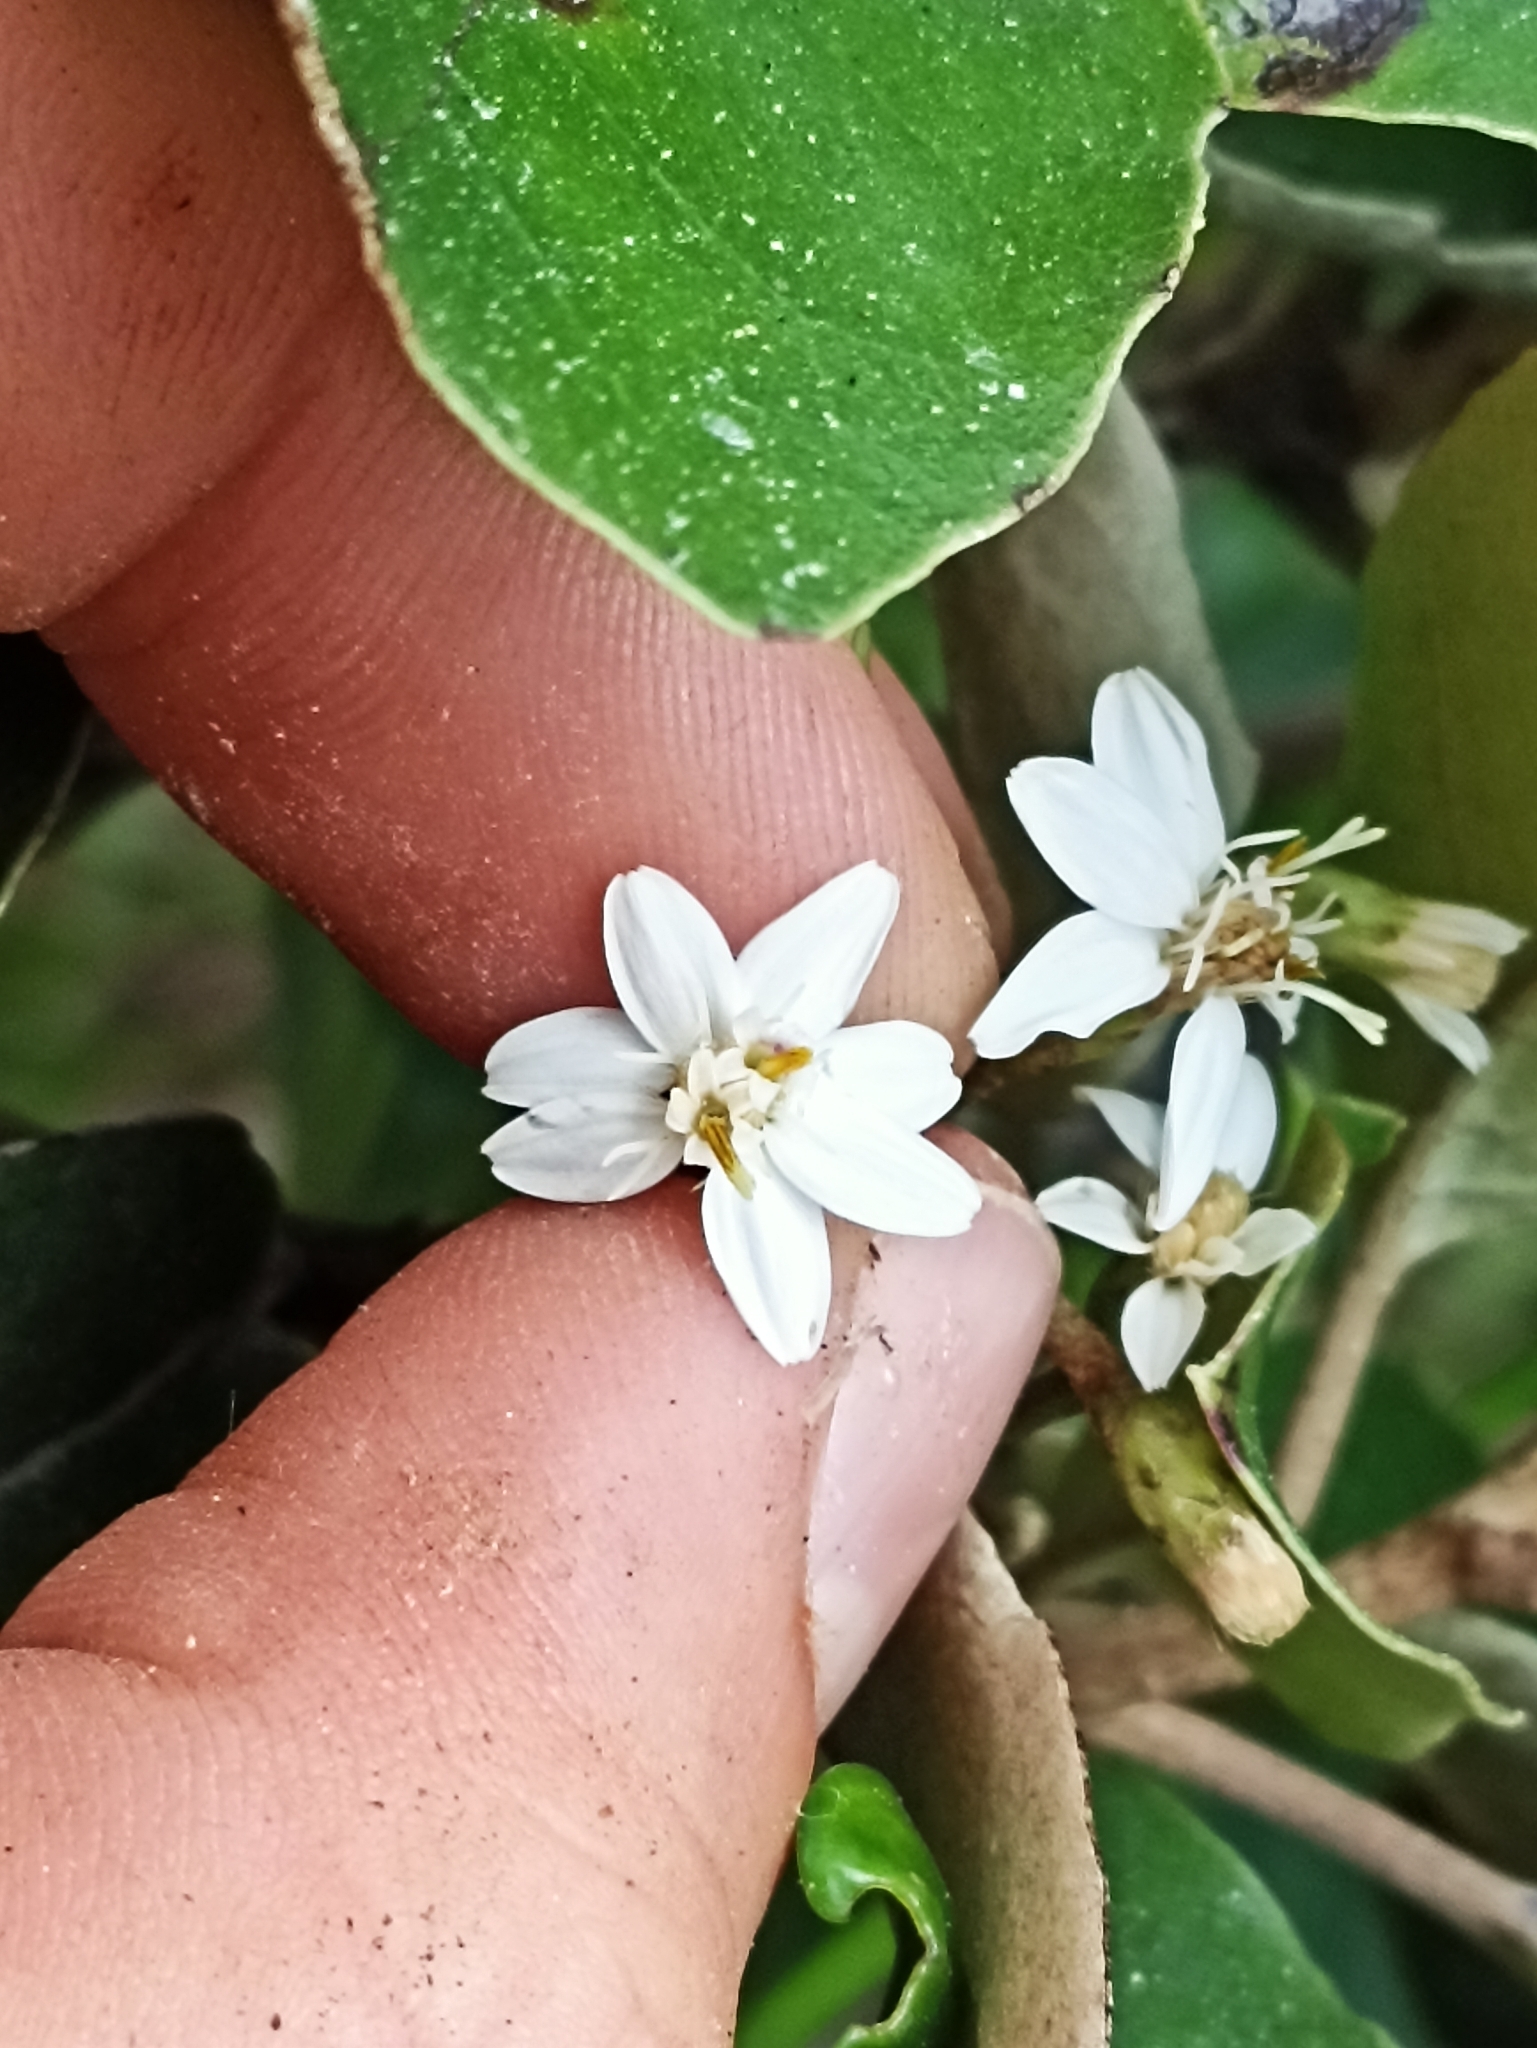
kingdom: Plantae
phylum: Tracheophyta
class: Magnoliopsida
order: Asterales
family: Asteraceae
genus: Olearia
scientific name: Olearia furfuracea
